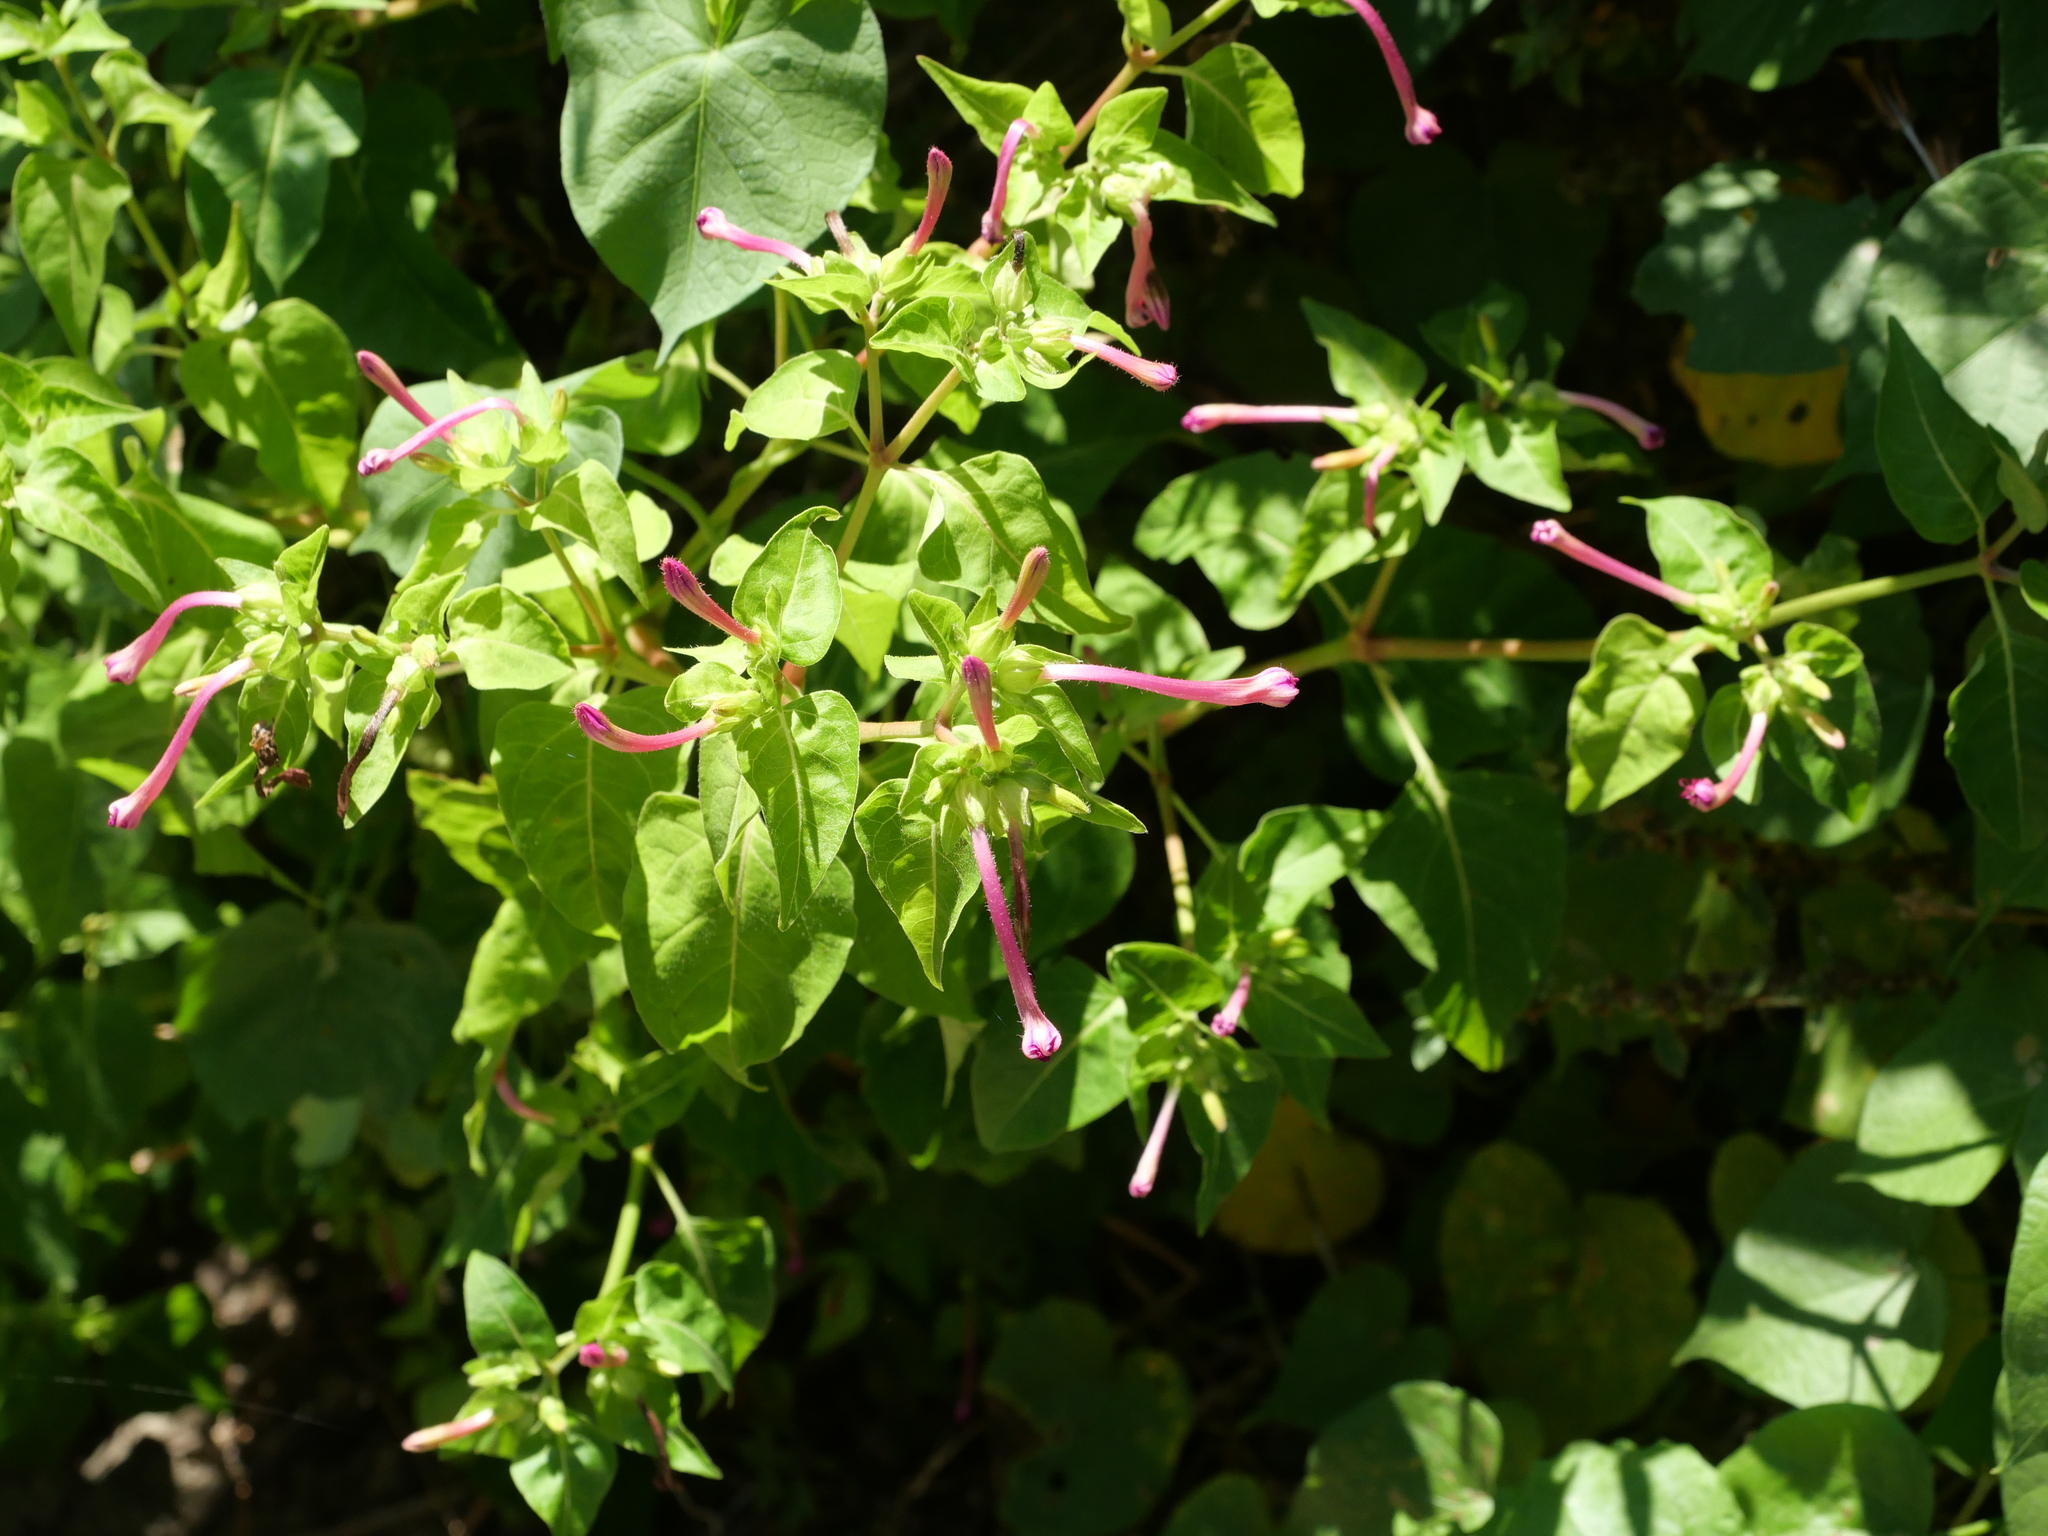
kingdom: Plantae
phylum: Tracheophyta
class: Magnoliopsida
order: Caryophyllales
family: Nyctaginaceae
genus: Mirabilis
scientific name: Mirabilis jalapa
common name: Marvel-of-peru
